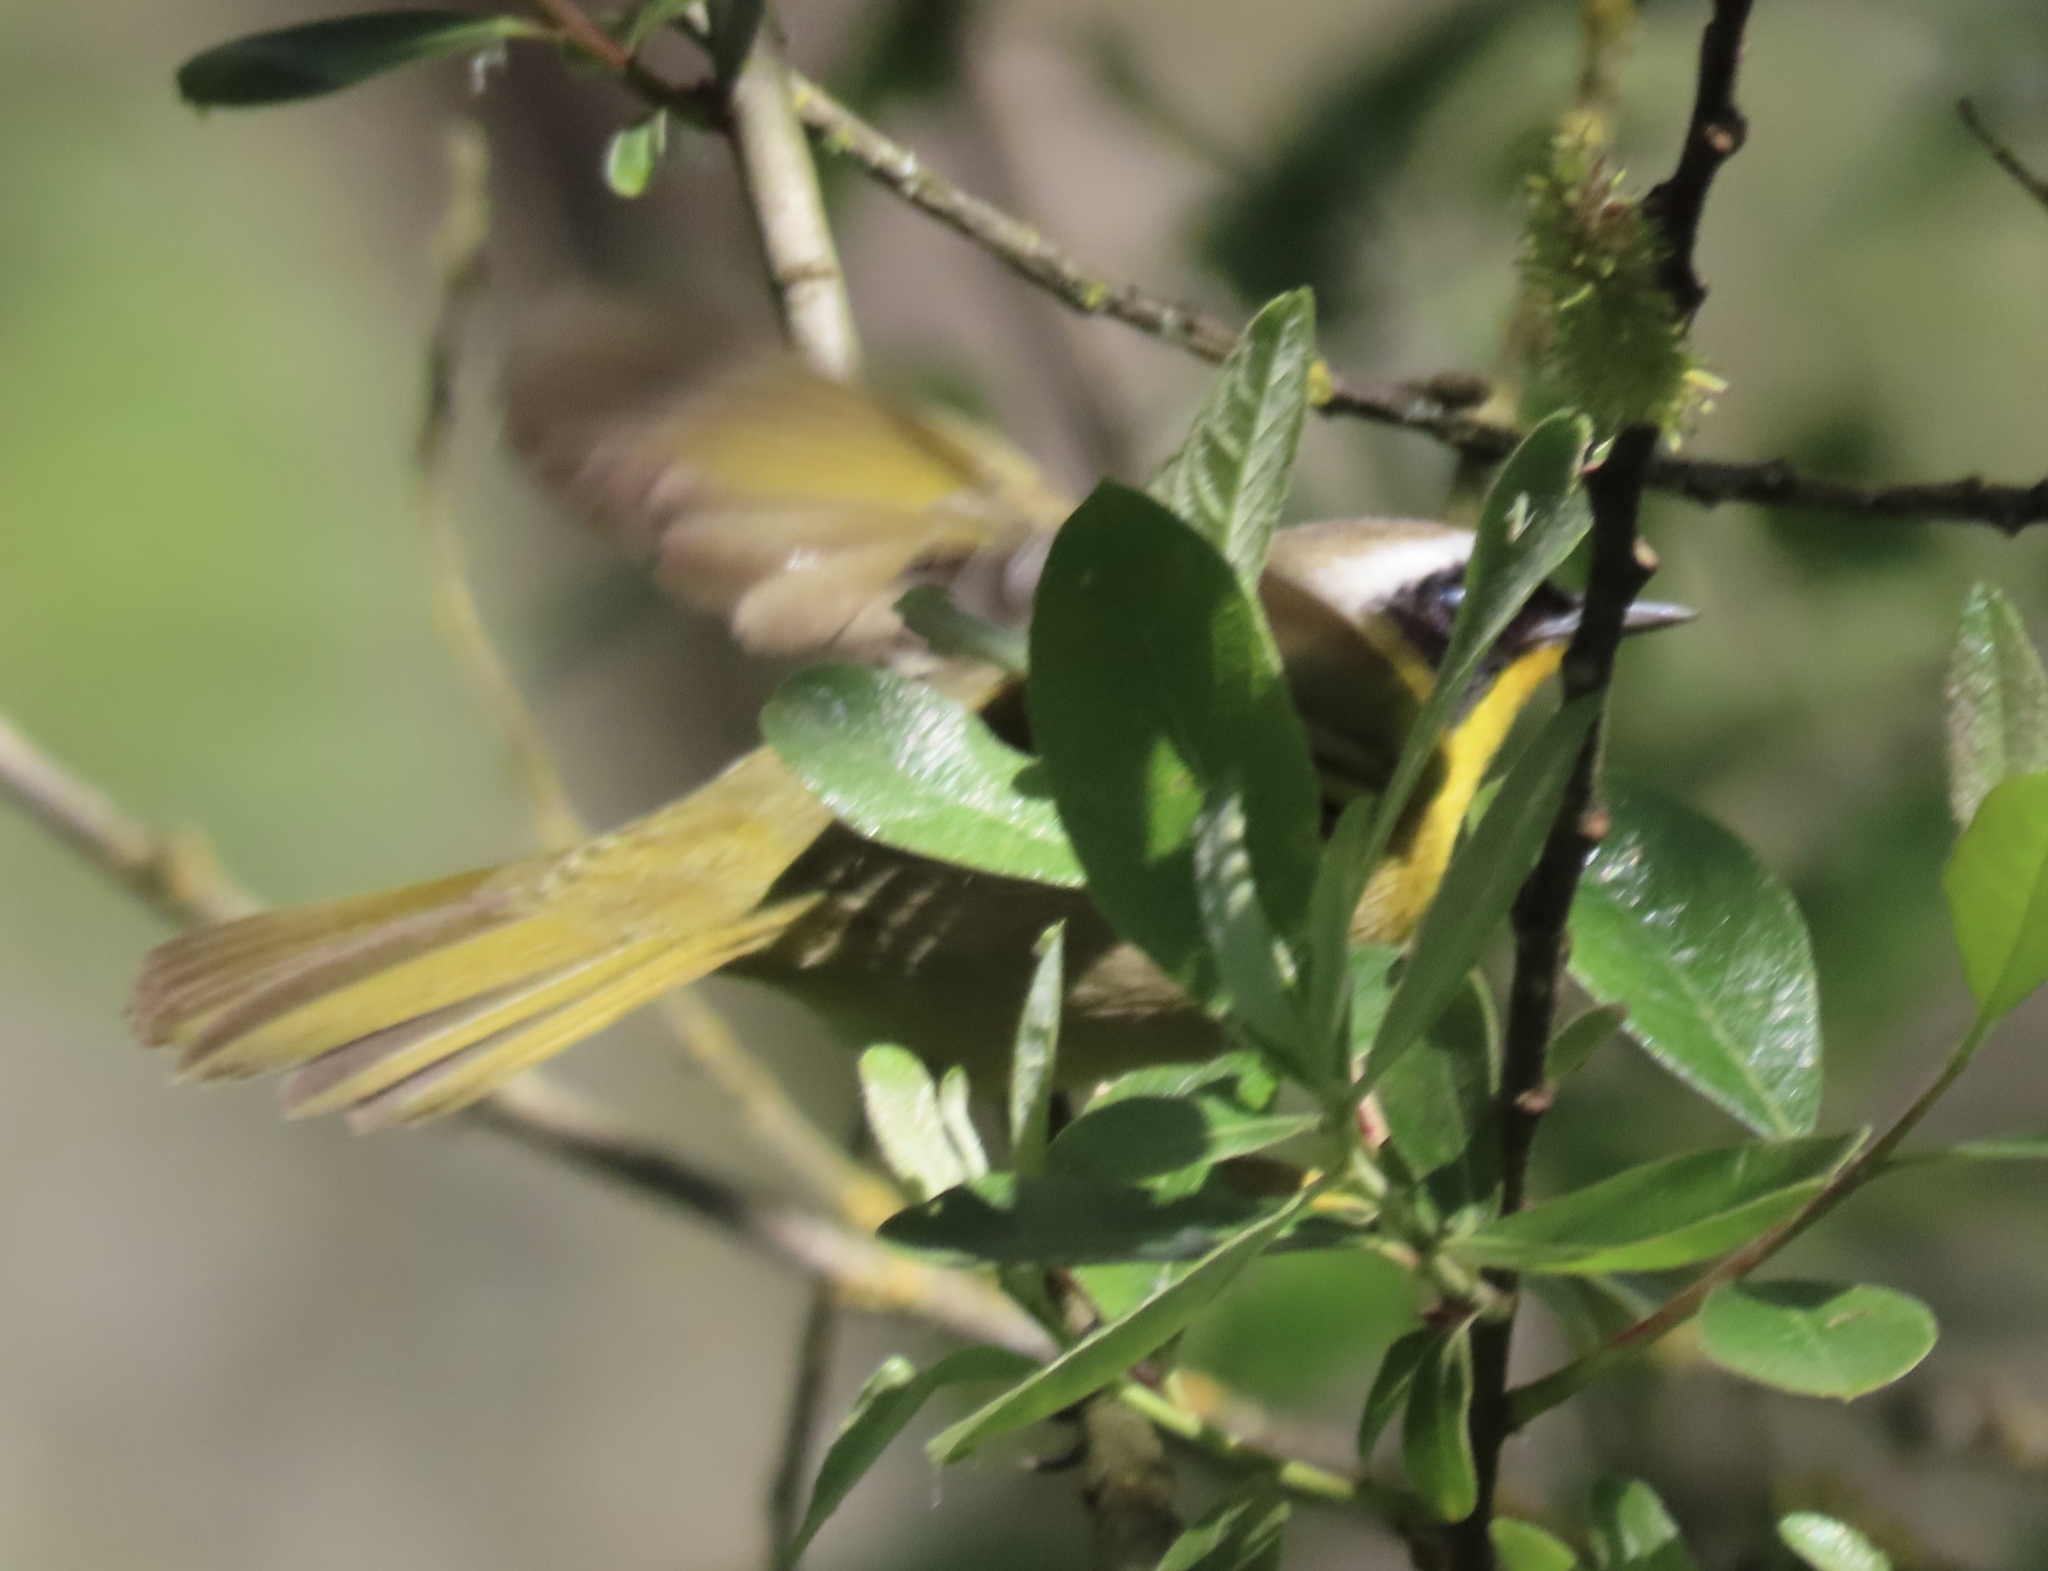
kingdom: Animalia
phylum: Chordata
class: Aves
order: Passeriformes
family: Parulidae
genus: Geothlypis
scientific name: Geothlypis trichas
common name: Common yellowthroat
